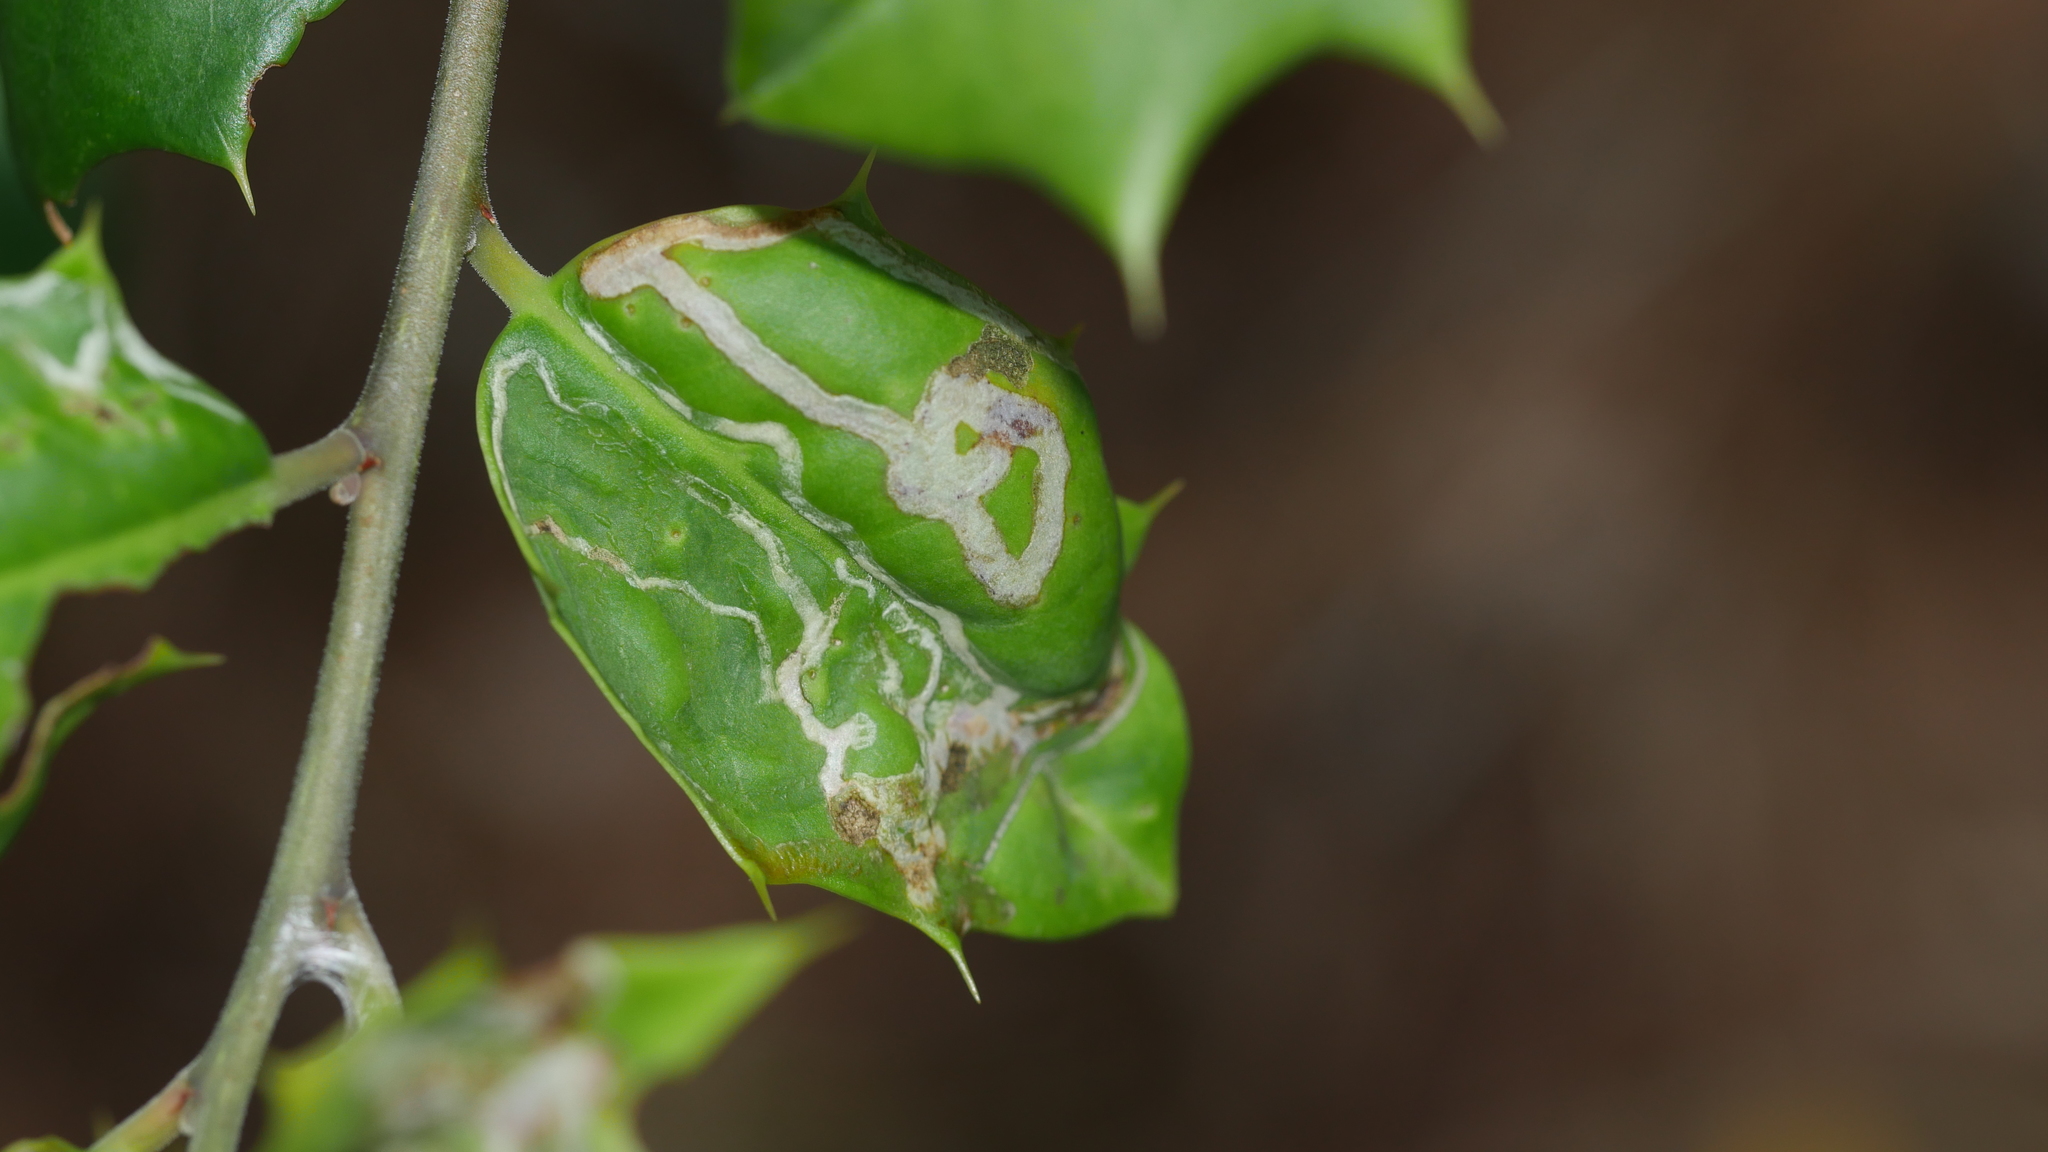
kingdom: Animalia
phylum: Arthropoda
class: Insecta
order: Diptera
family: Agromyzidae
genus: Phytomyza
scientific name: Phytomyza opacae
